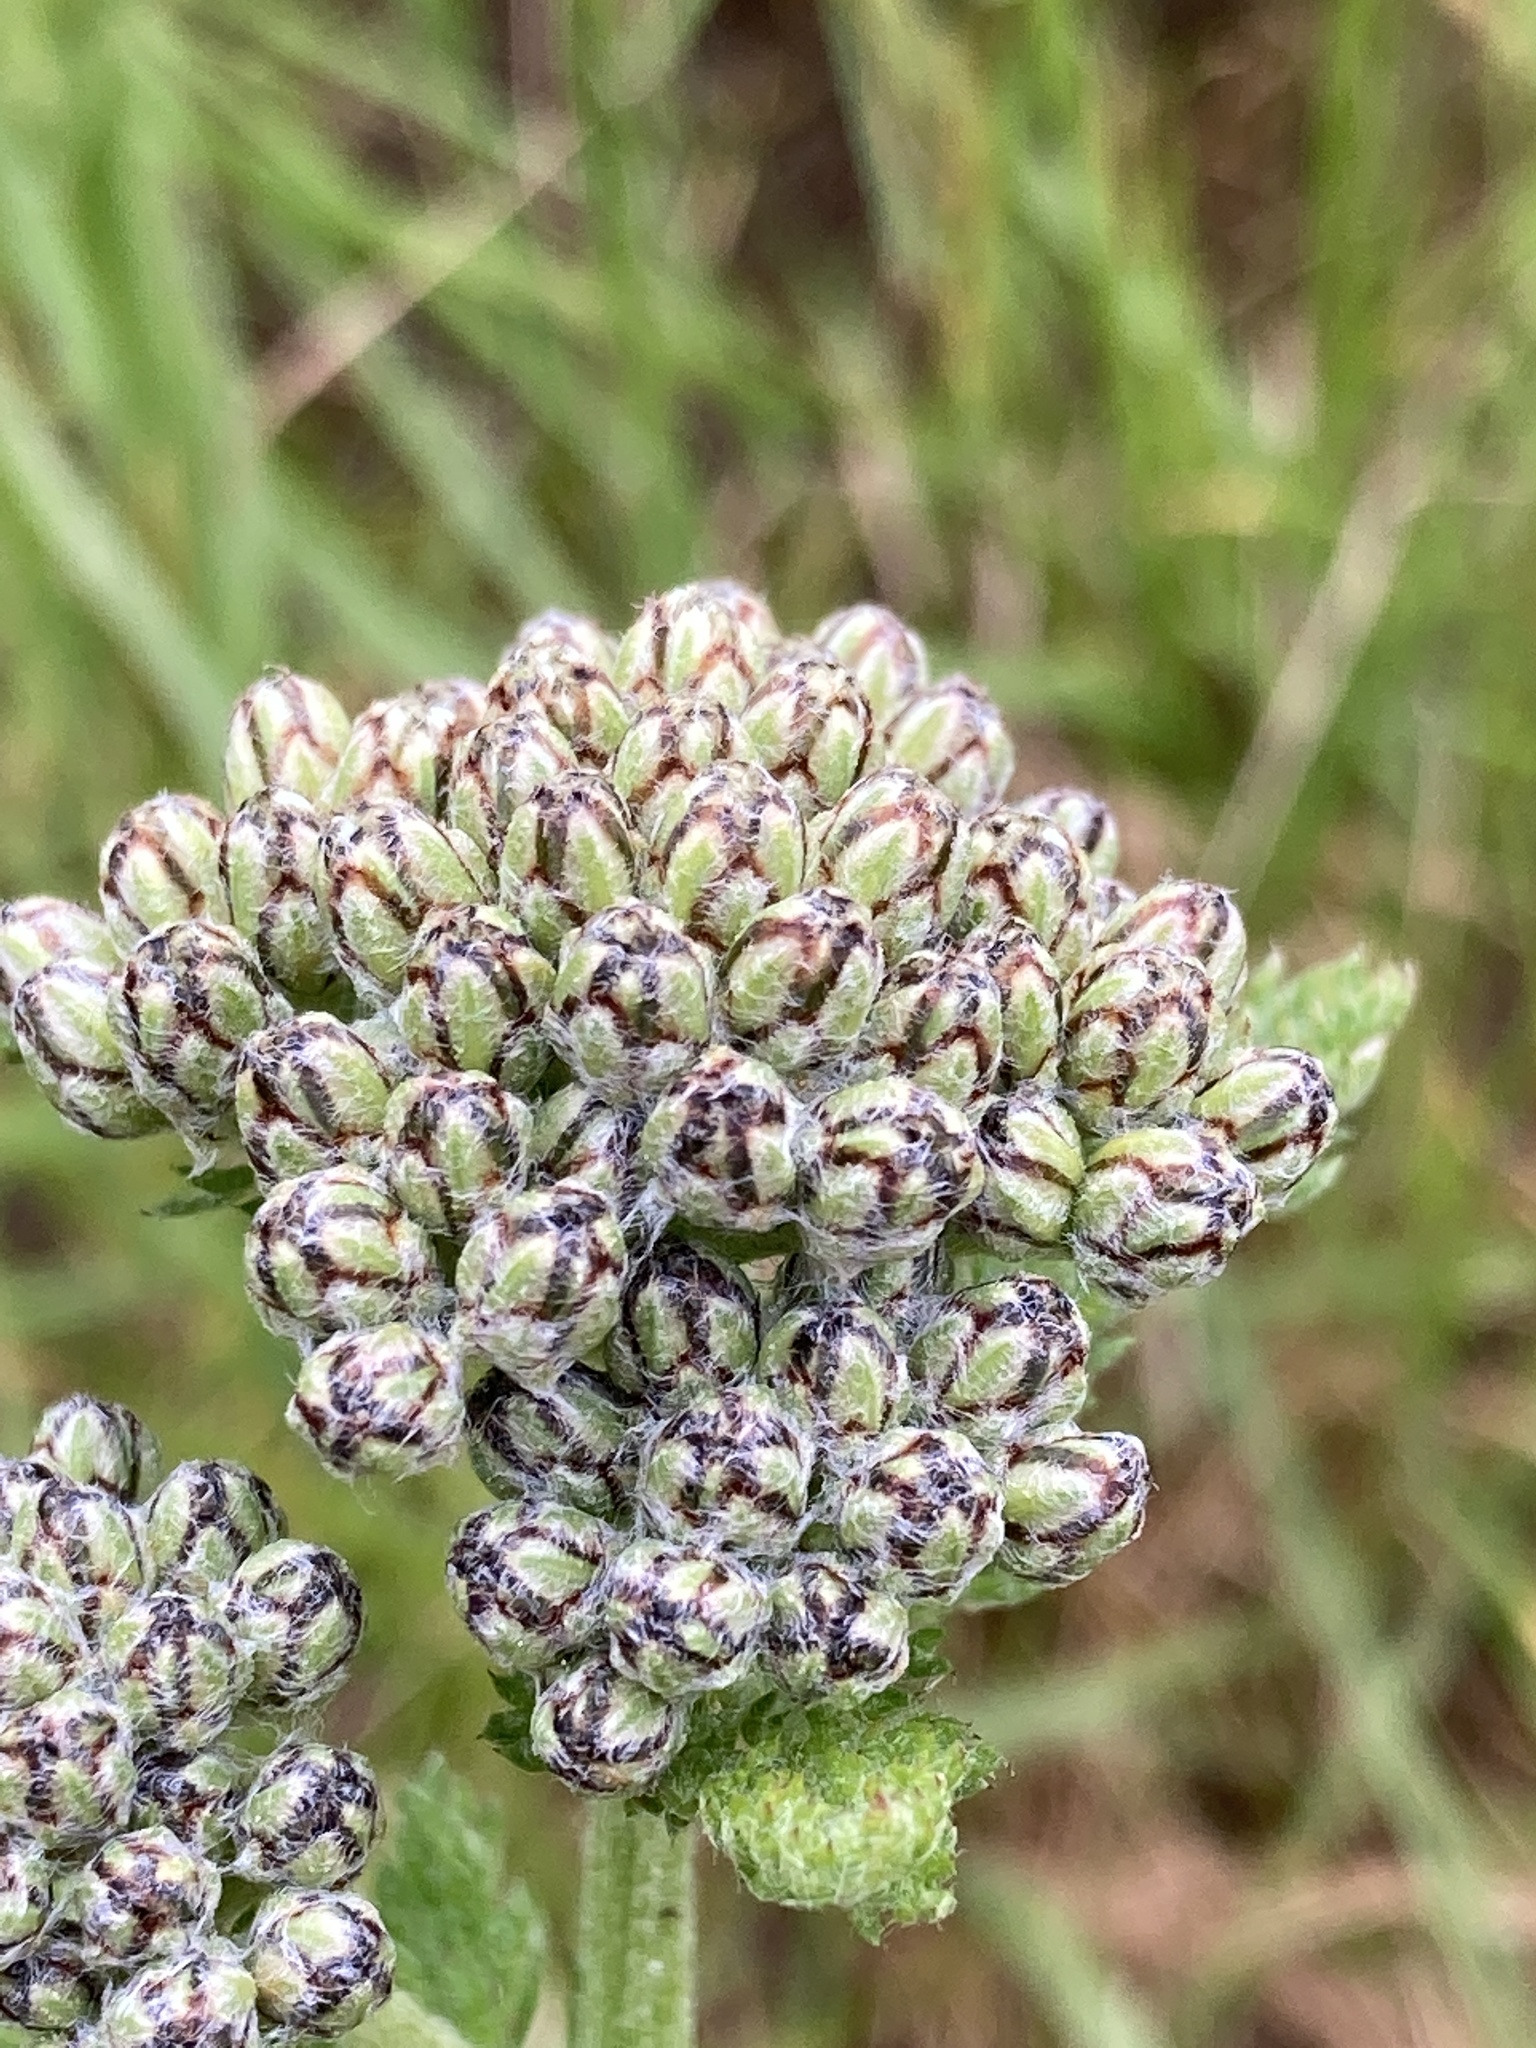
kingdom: Plantae
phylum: Tracheophyta
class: Magnoliopsida
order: Asterales
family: Asteraceae
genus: Achillea
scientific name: Achillea millefolium
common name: Yarrow
